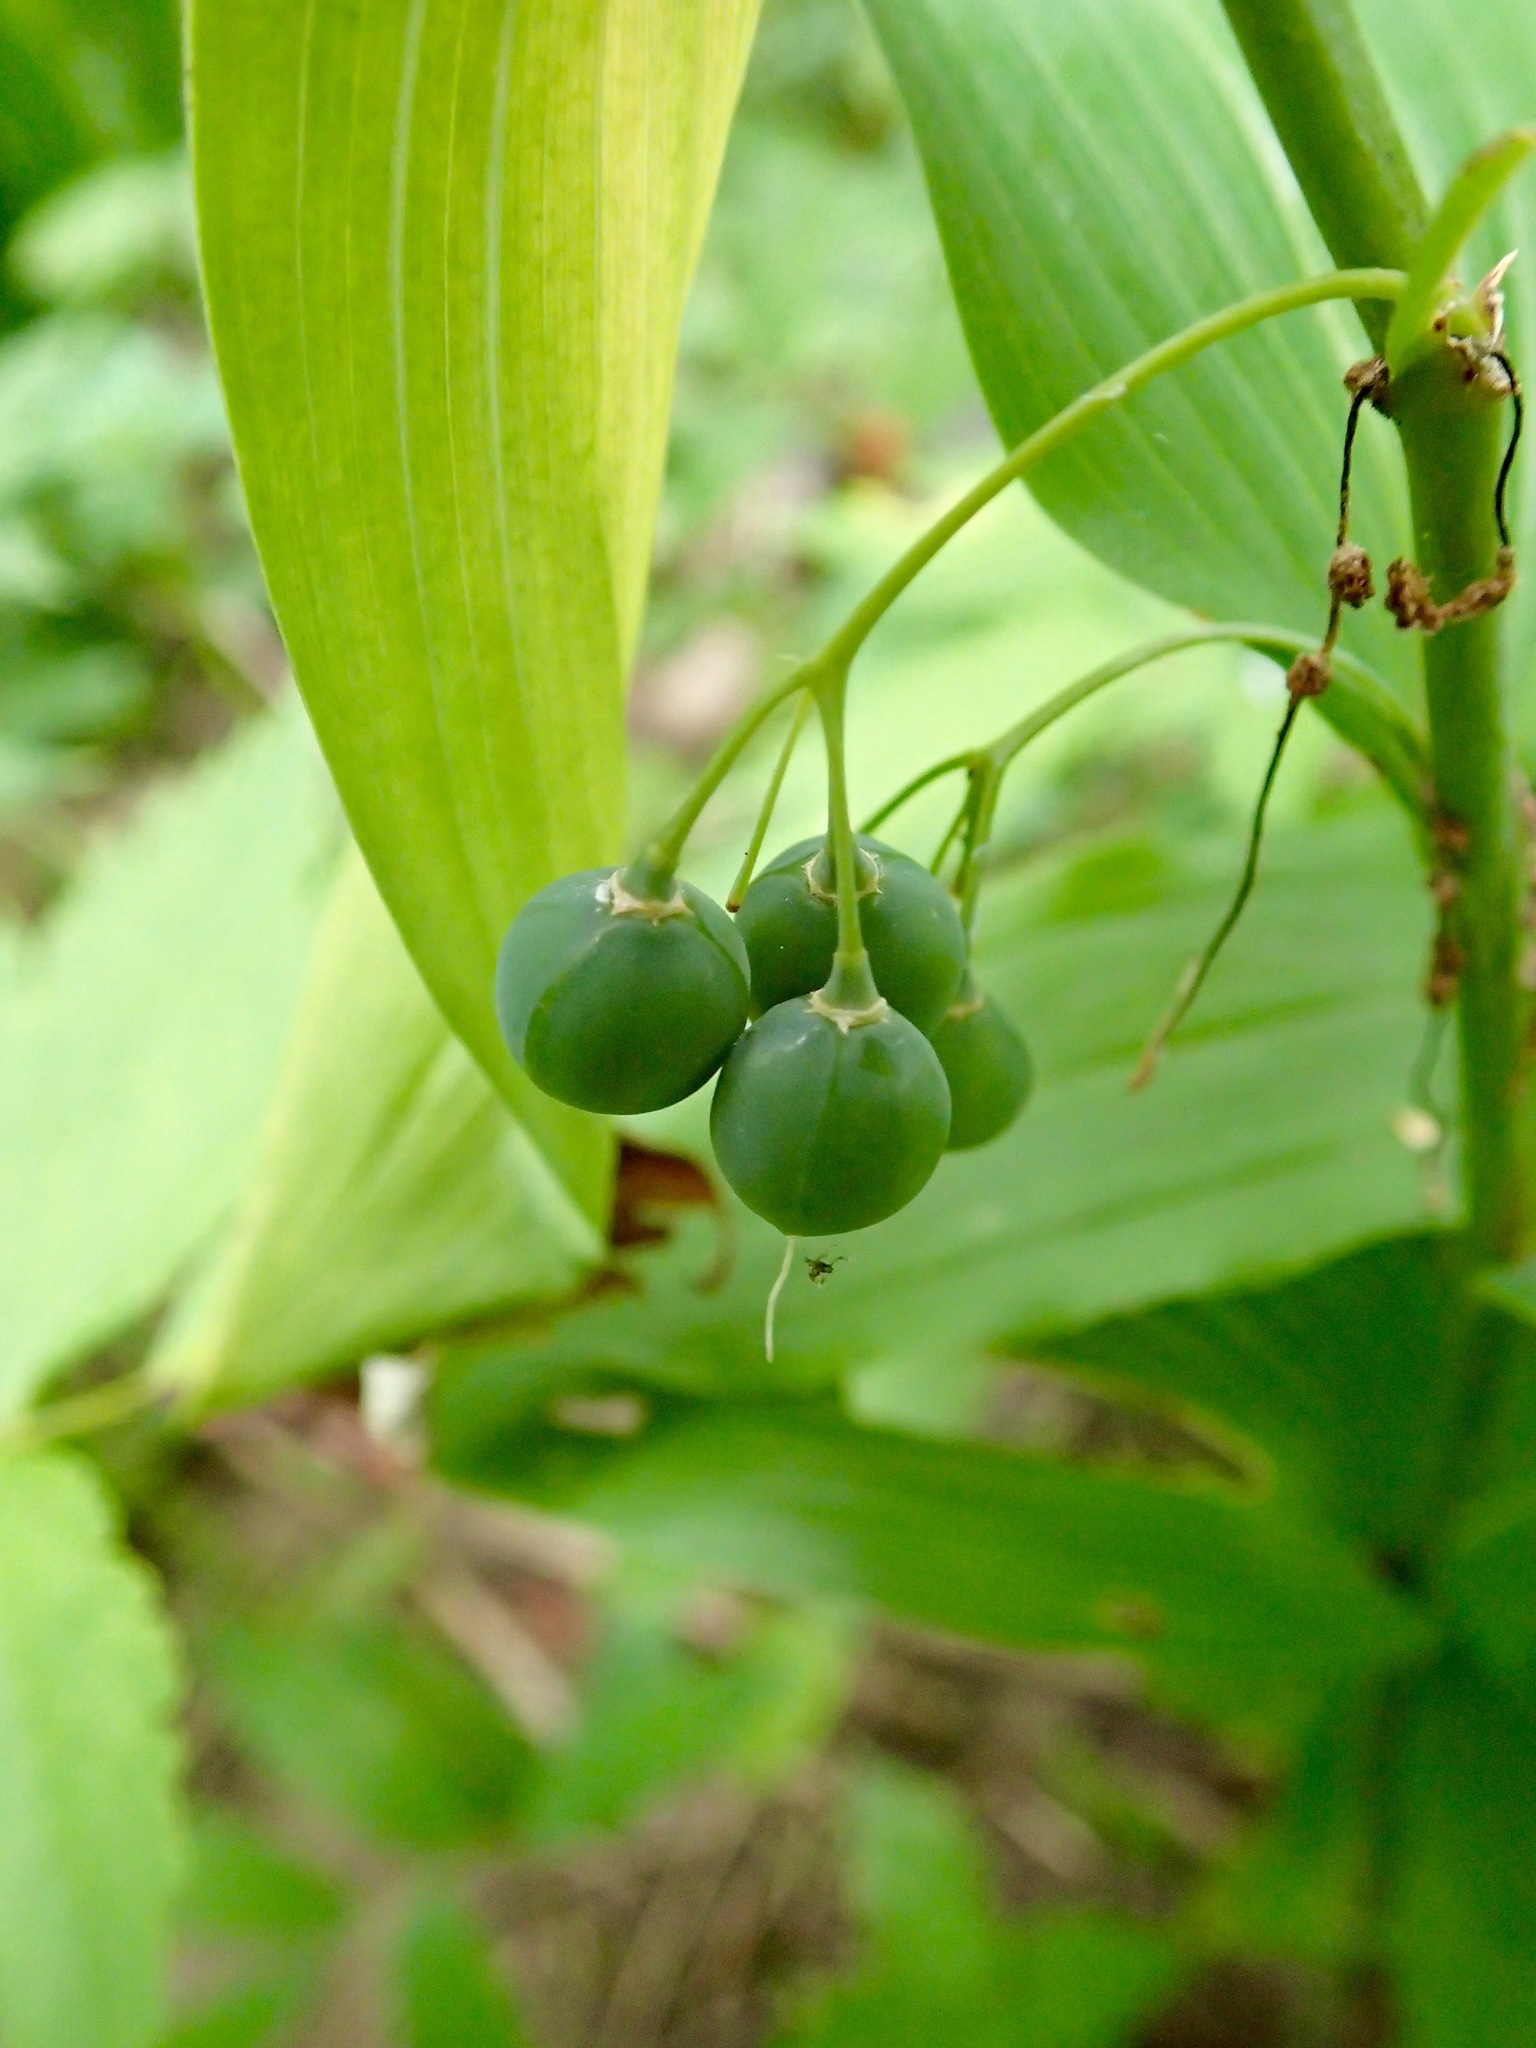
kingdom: Plantae
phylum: Tracheophyta
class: Liliopsida
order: Asparagales
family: Asparagaceae
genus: Polygonatum
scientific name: Polygonatum biflorum
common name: American solomon's-seal
